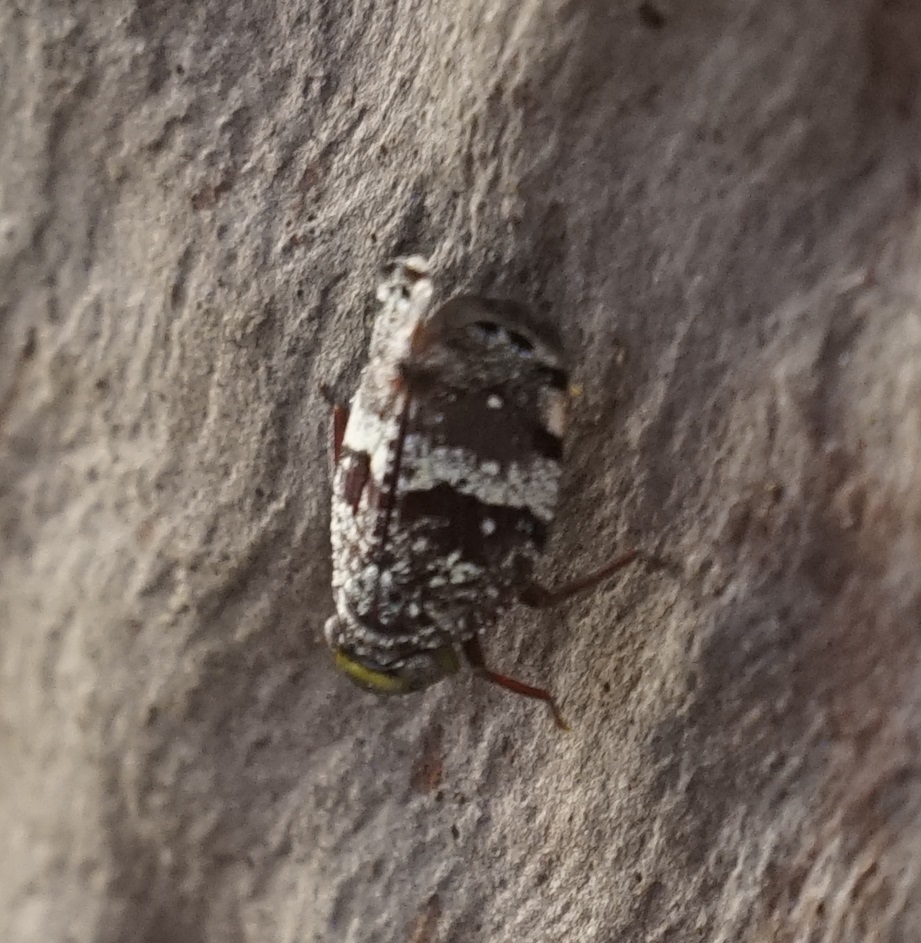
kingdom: Animalia
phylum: Arthropoda
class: Insecta
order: Hemiptera
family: Eurybrachidae
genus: Platybrachys
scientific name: Platybrachys decemmacula
